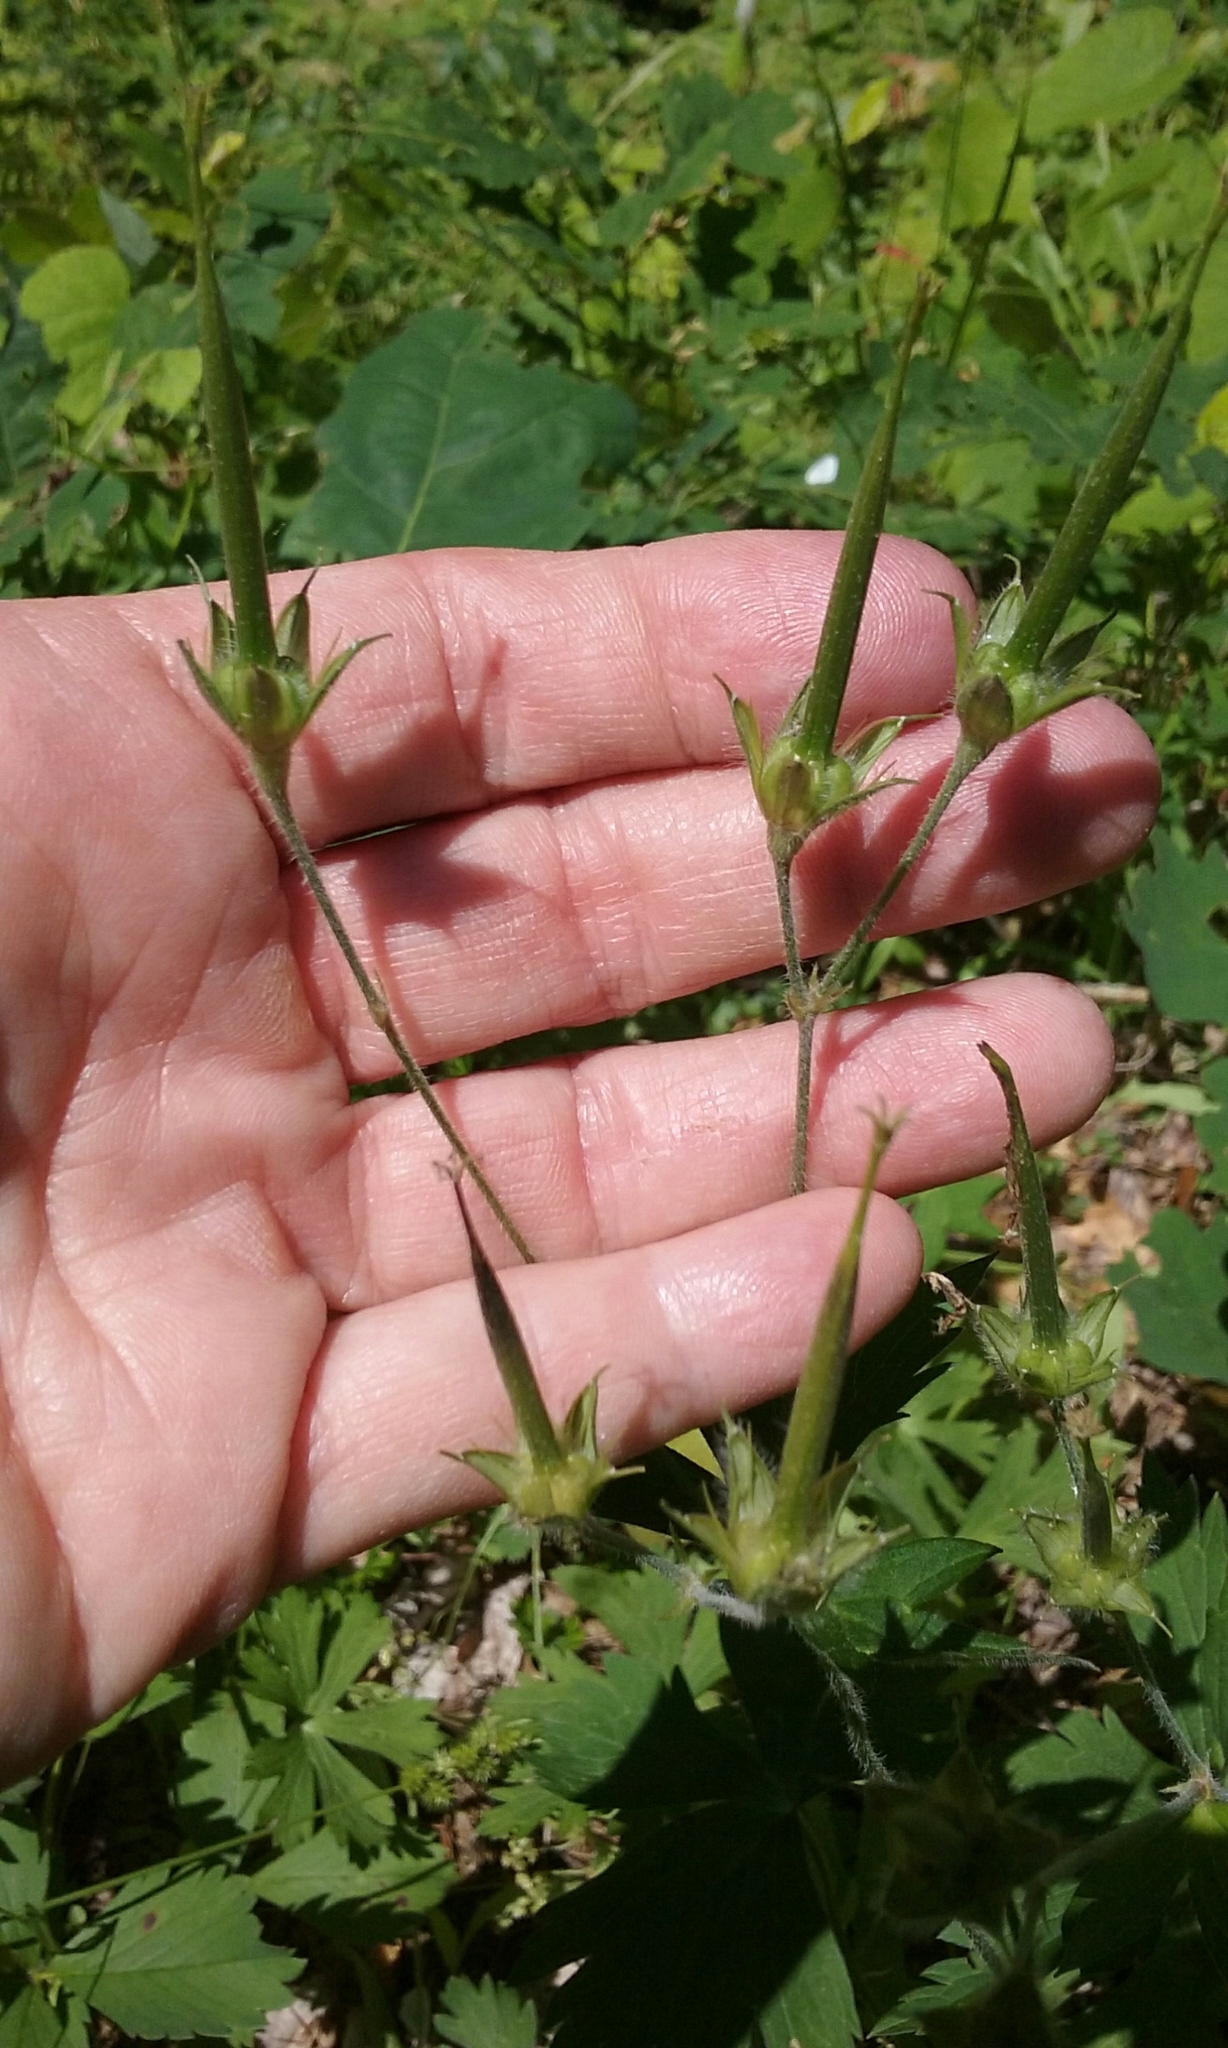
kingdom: Plantae
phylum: Tracheophyta
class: Magnoliopsida
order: Geraniales
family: Geraniaceae
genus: Geranium
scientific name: Geranium maculatum
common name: Spotted geranium
